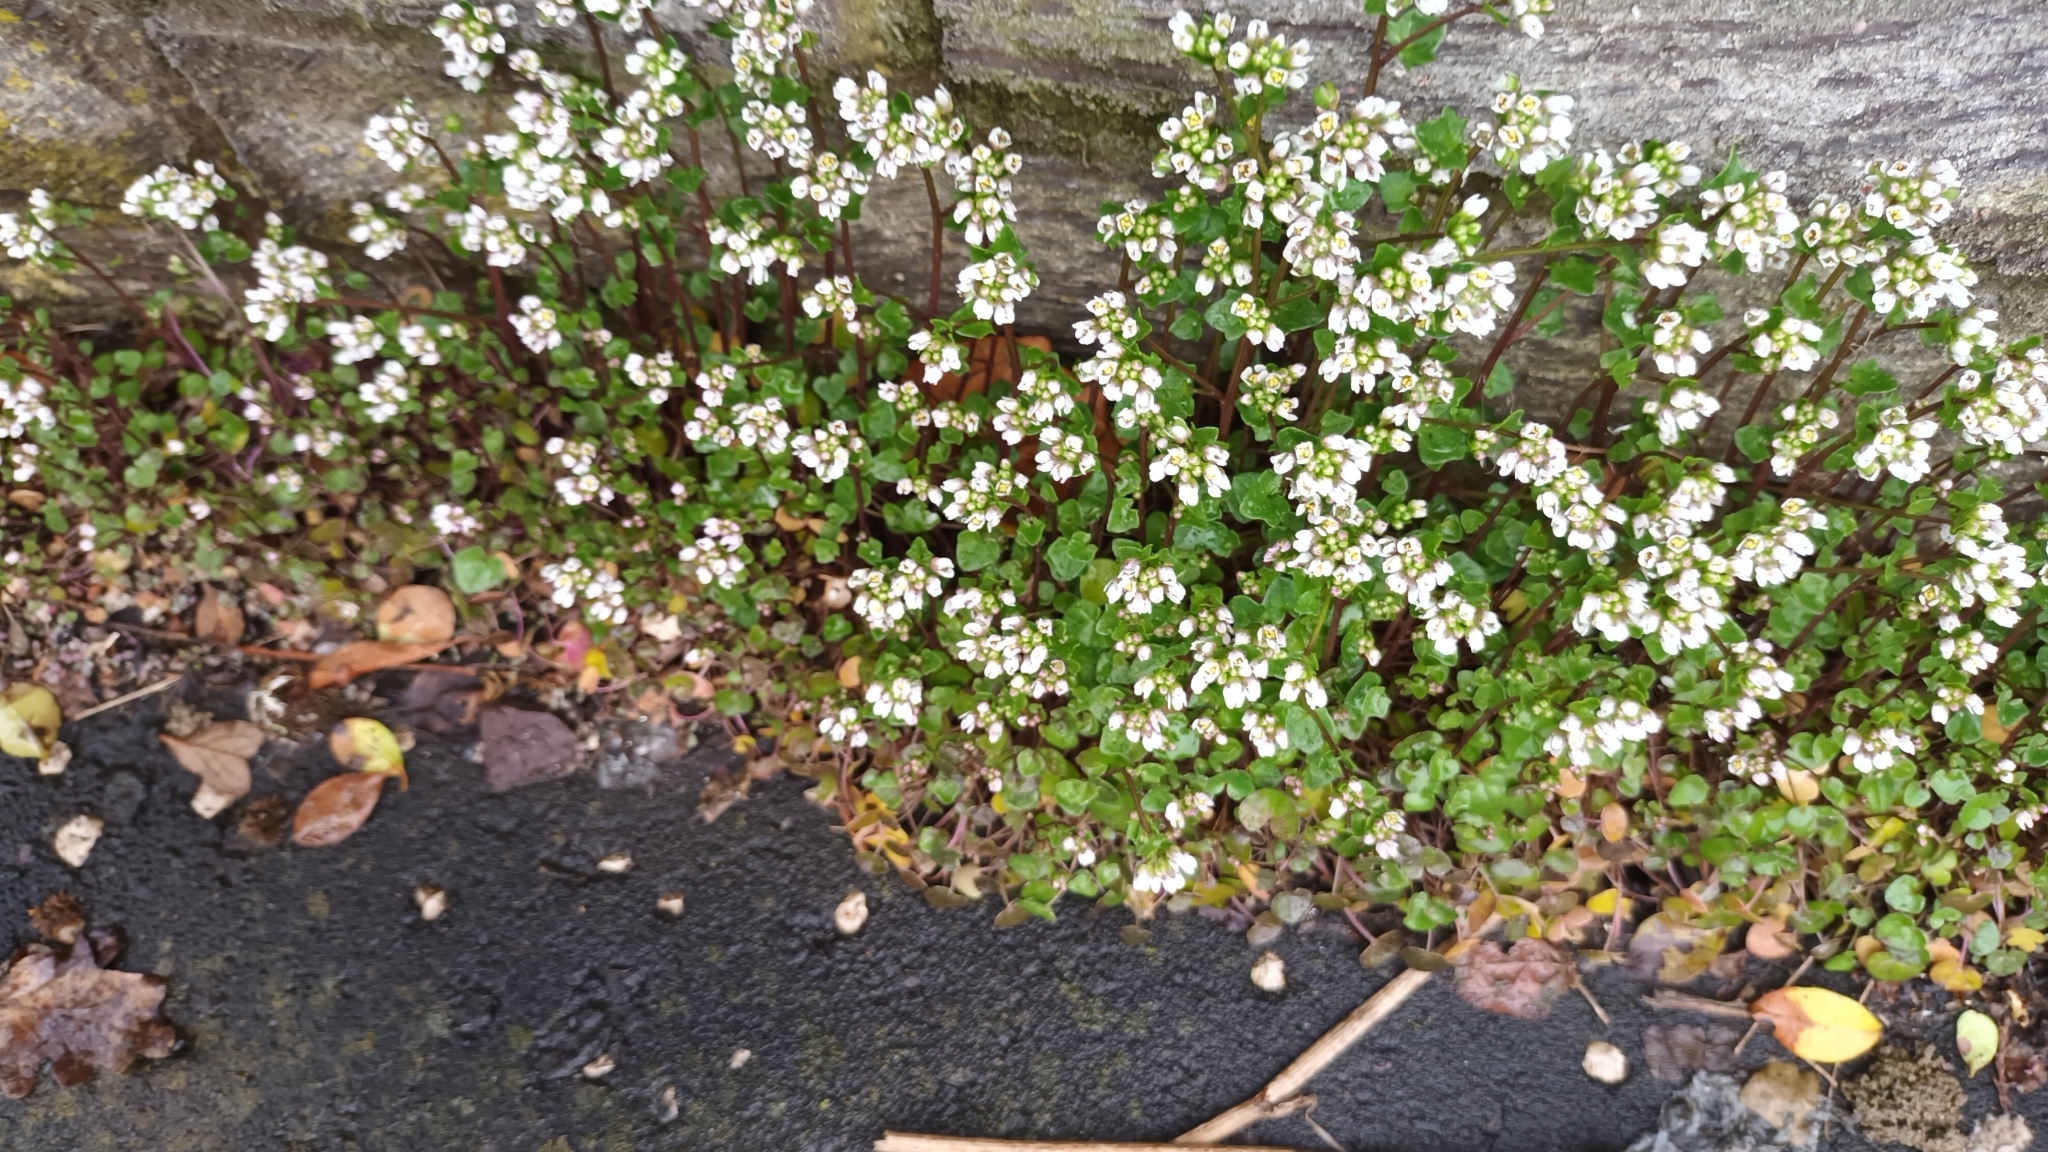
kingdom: Plantae
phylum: Tracheophyta
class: Magnoliopsida
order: Brassicales
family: Brassicaceae
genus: Cochlearia
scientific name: Cochlearia danica
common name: Early scurvygrass
